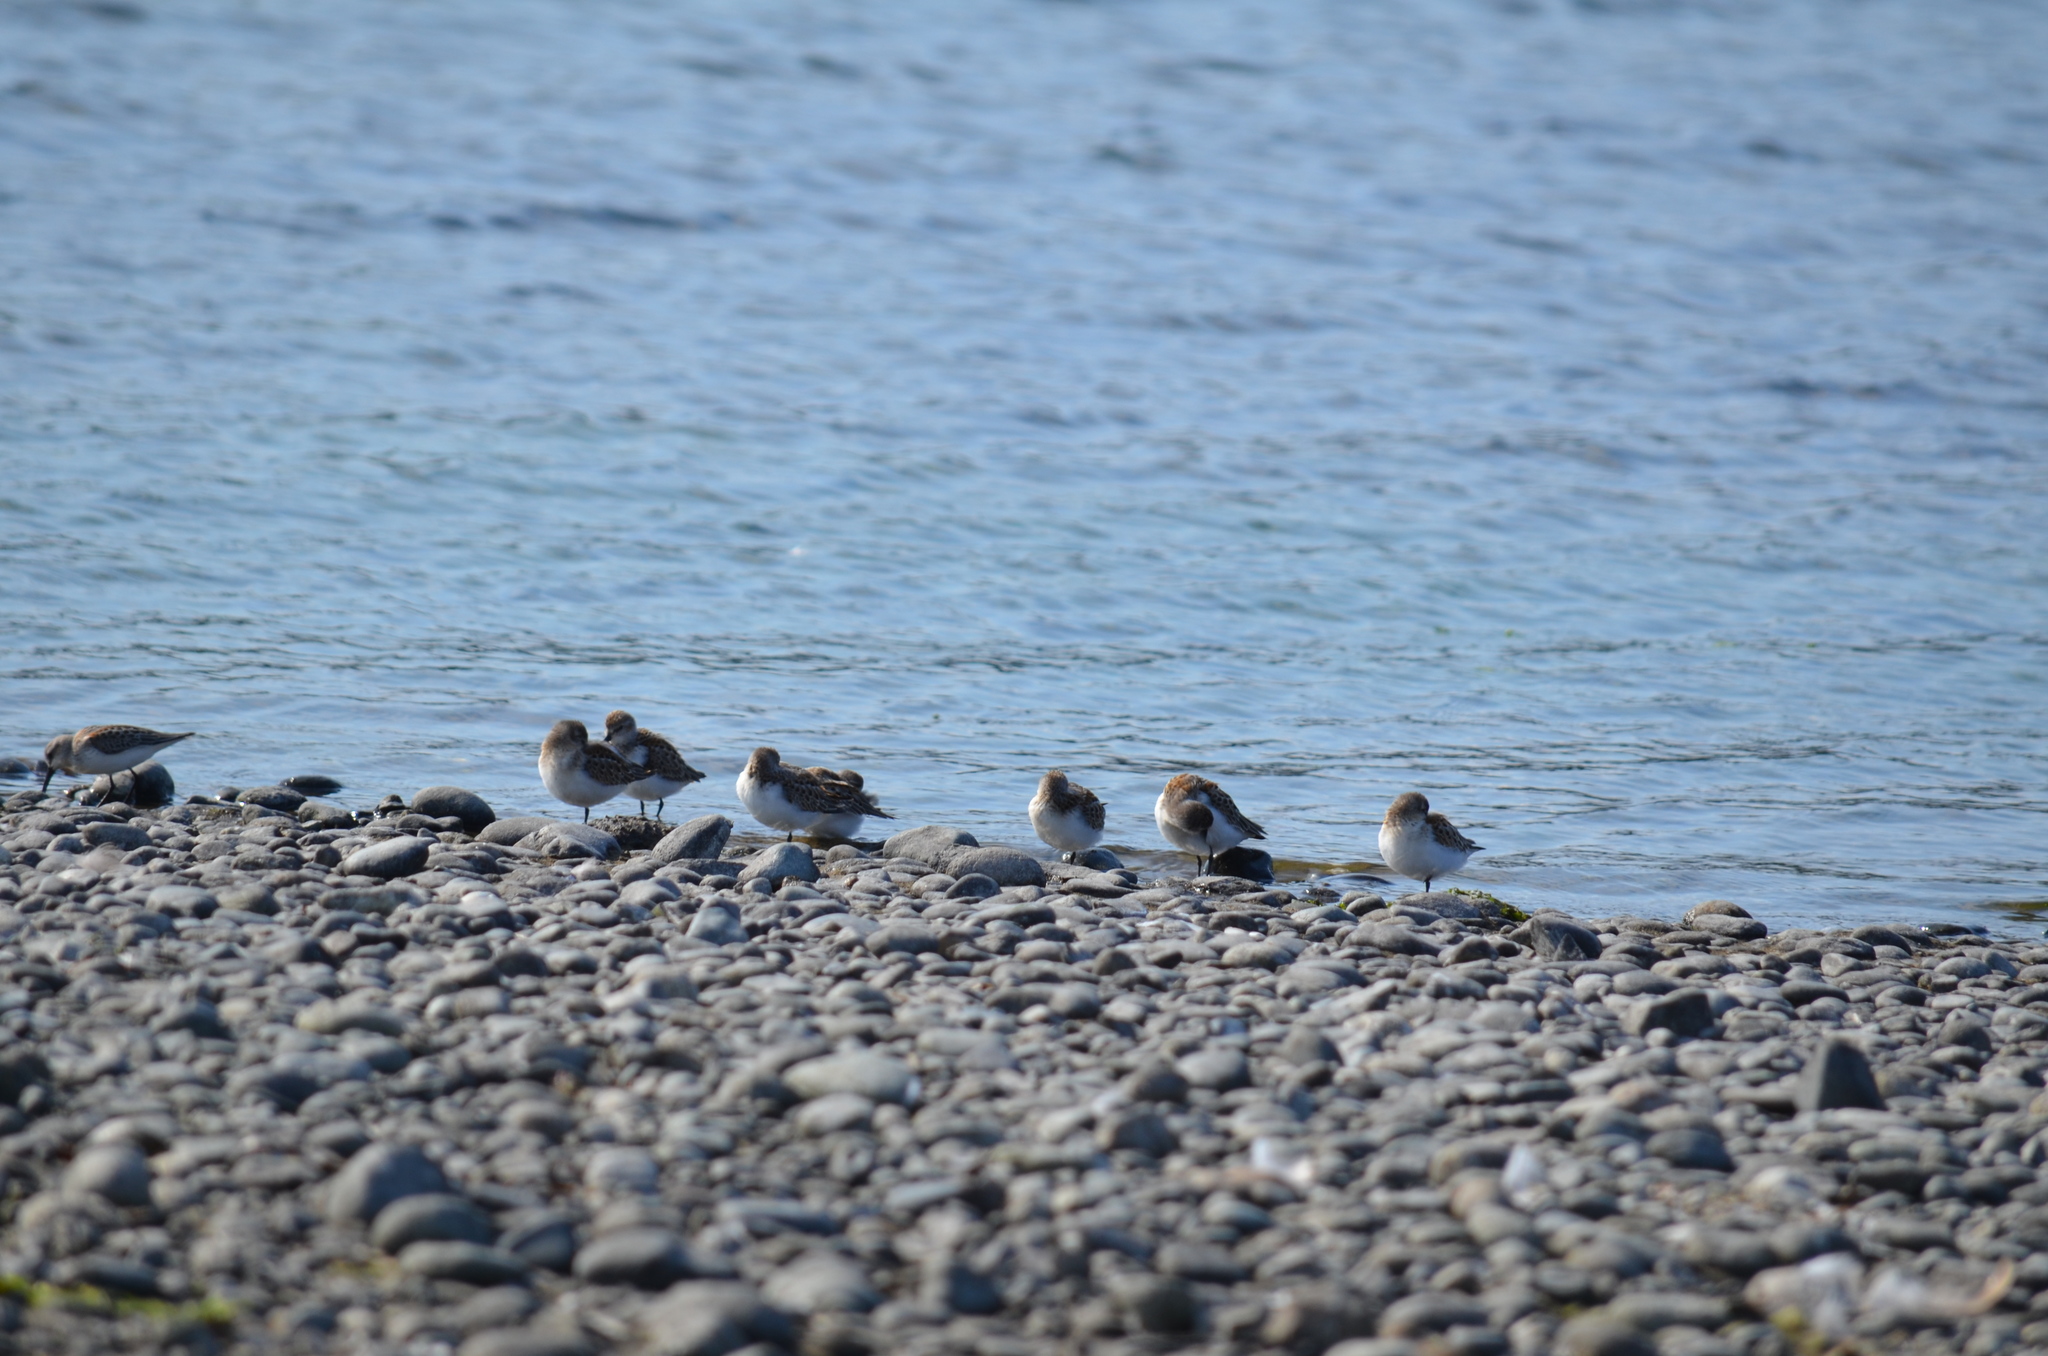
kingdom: Animalia
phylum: Chordata
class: Aves
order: Charadriiformes
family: Scolopacidae
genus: Calidris
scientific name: Calidris mauri
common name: Western sandpiper
